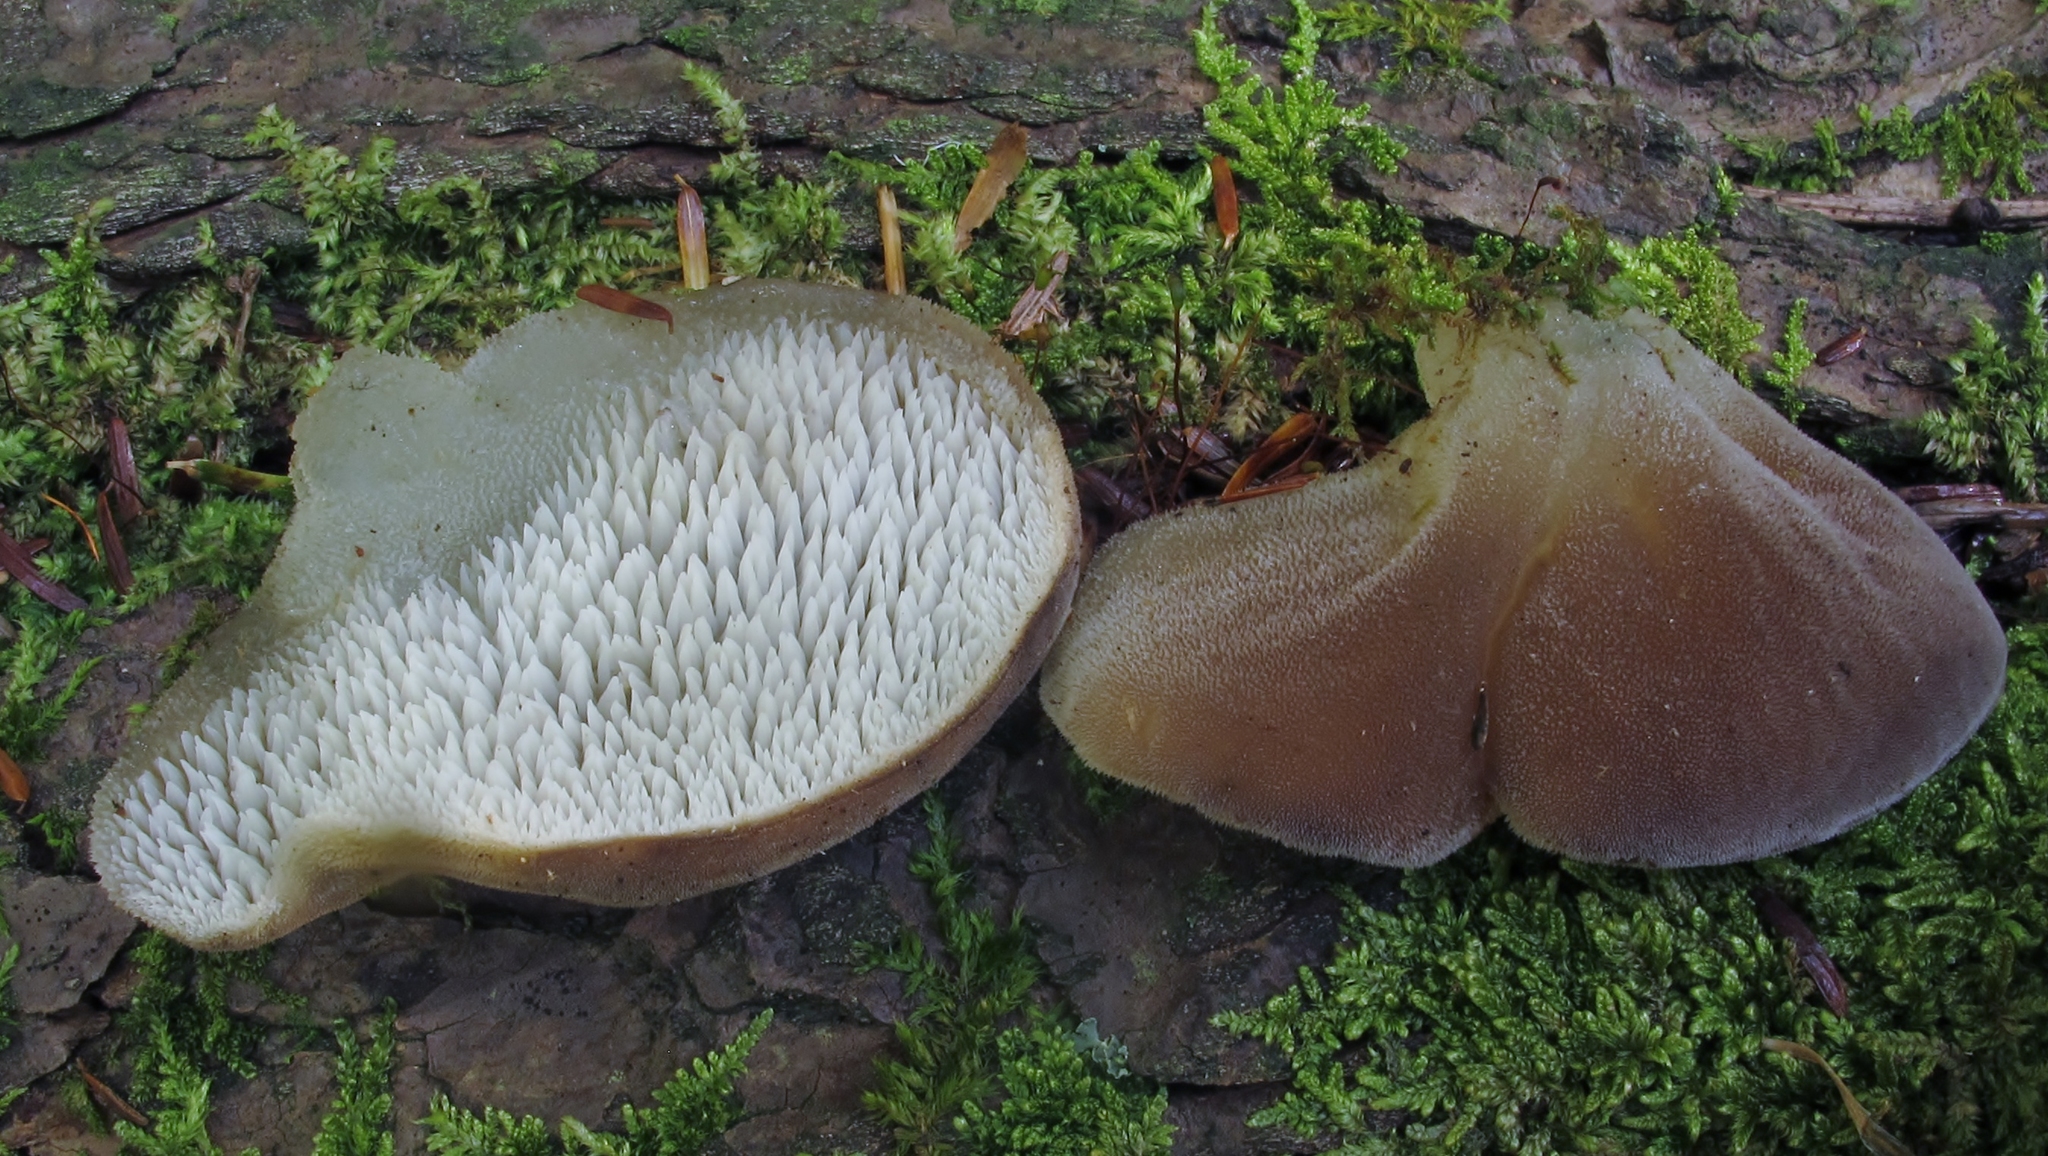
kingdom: Fungi
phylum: Basidiomycota
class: Agaricomycetes
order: Auriculariales
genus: Pseudohydnum
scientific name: Pseudohydnum gelatinosum
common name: Jelly tongue
